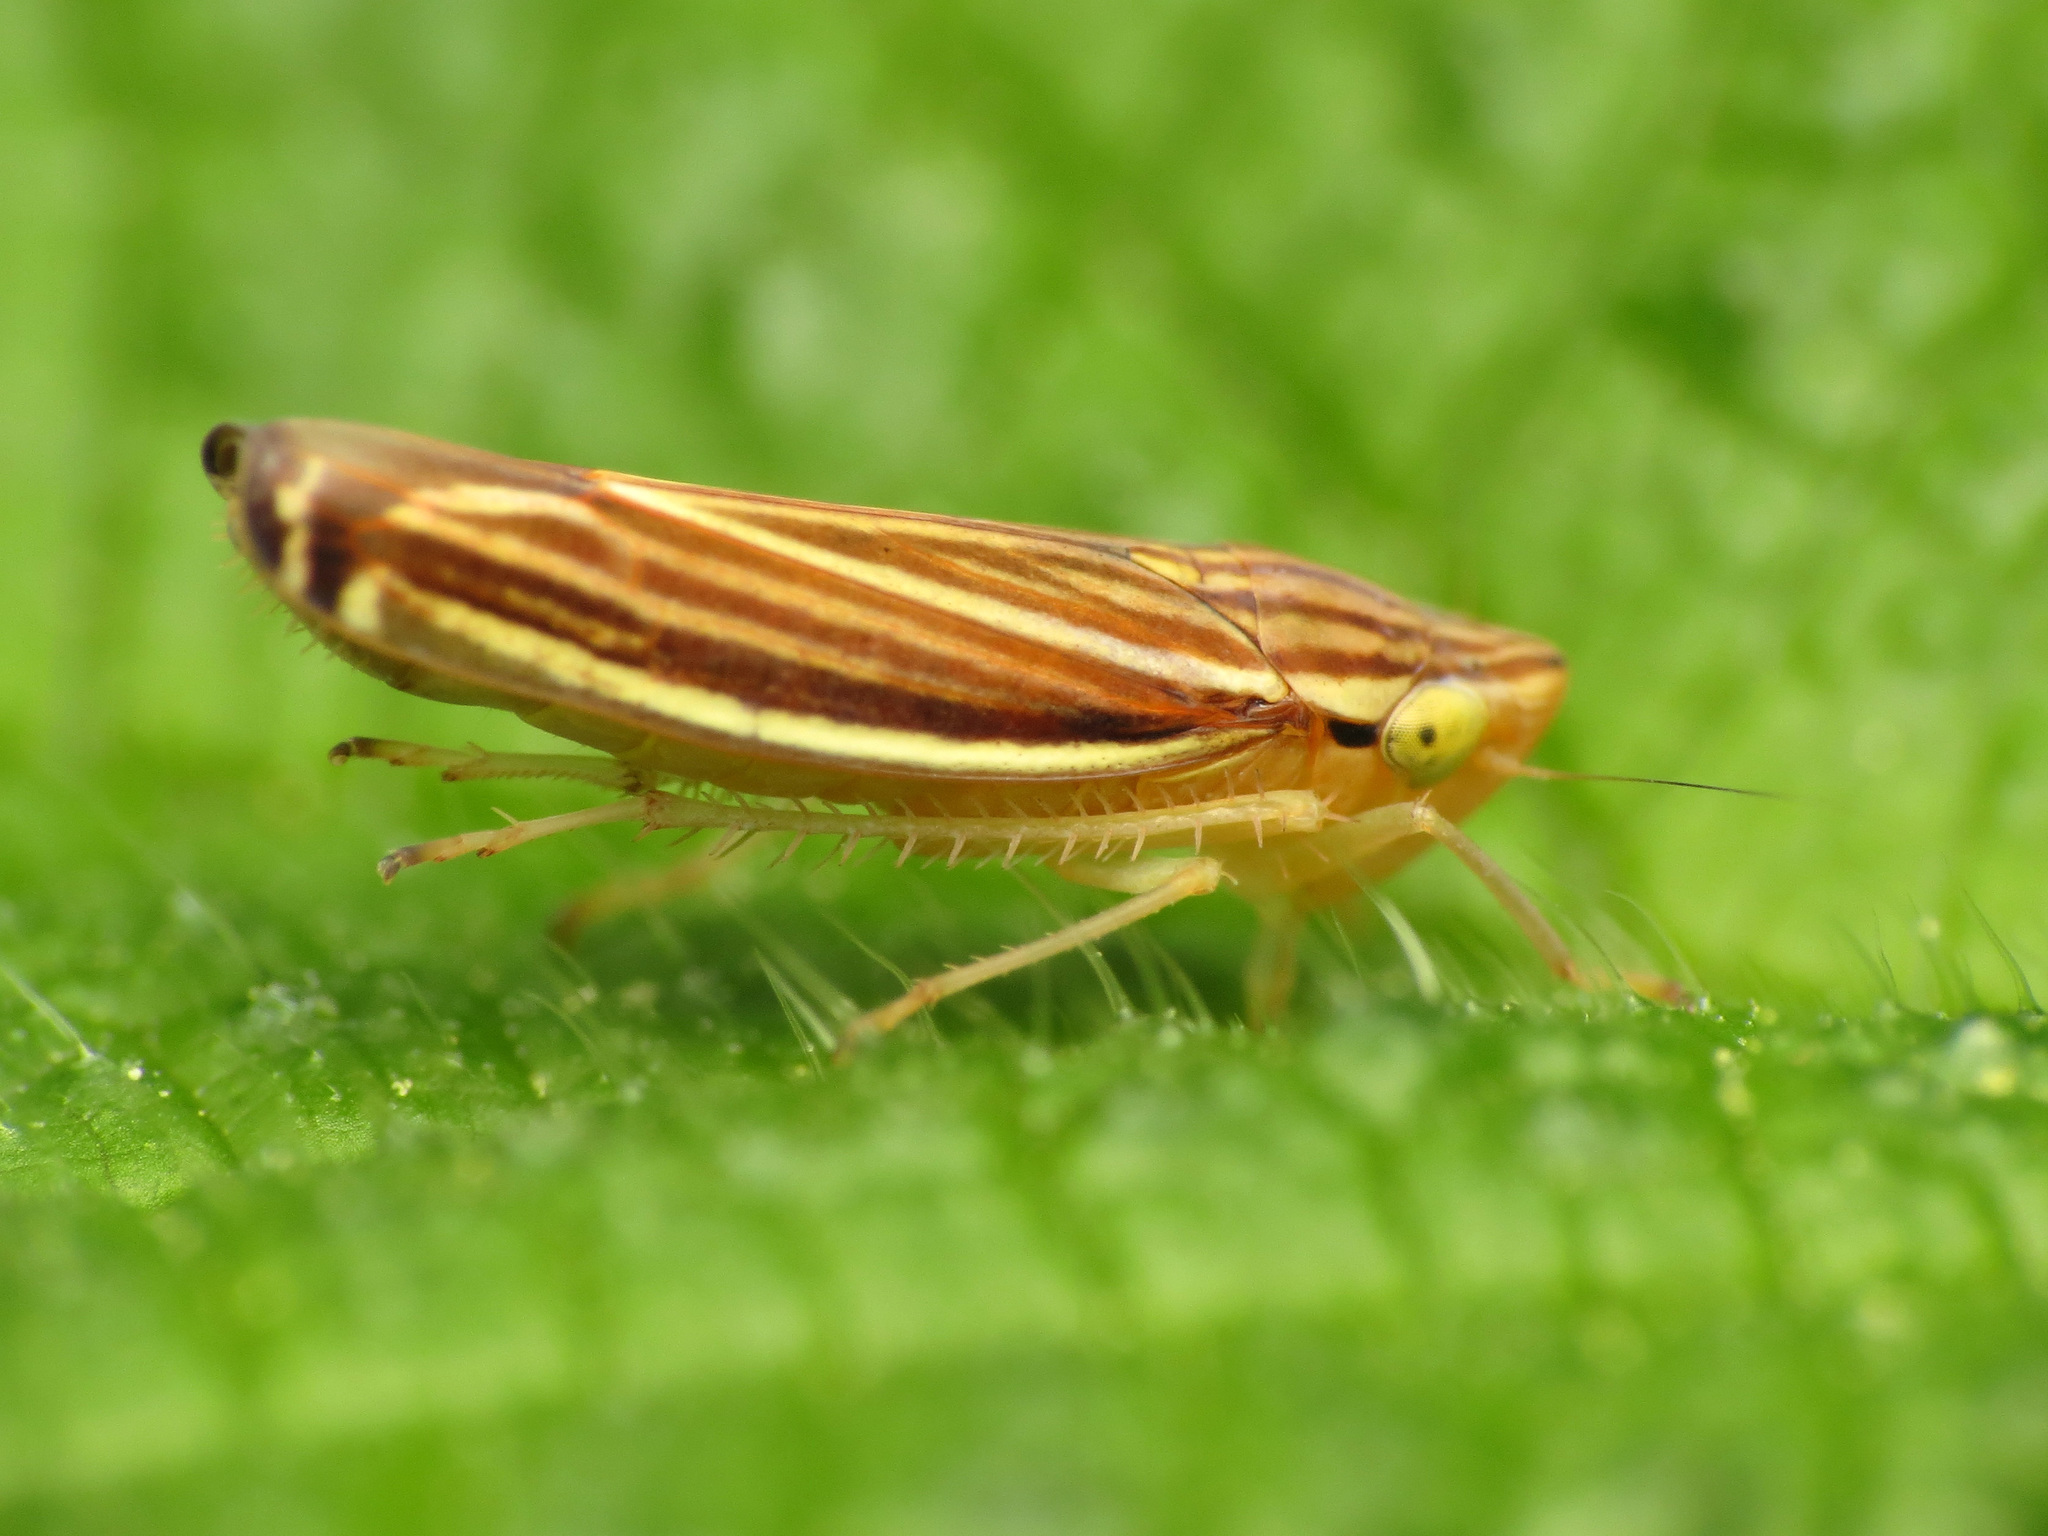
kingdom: Animalia
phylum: Arthropoda
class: Insecta
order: Hemiptera
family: Cicadellidae
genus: Sibovia
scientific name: Sibovia occatoria
